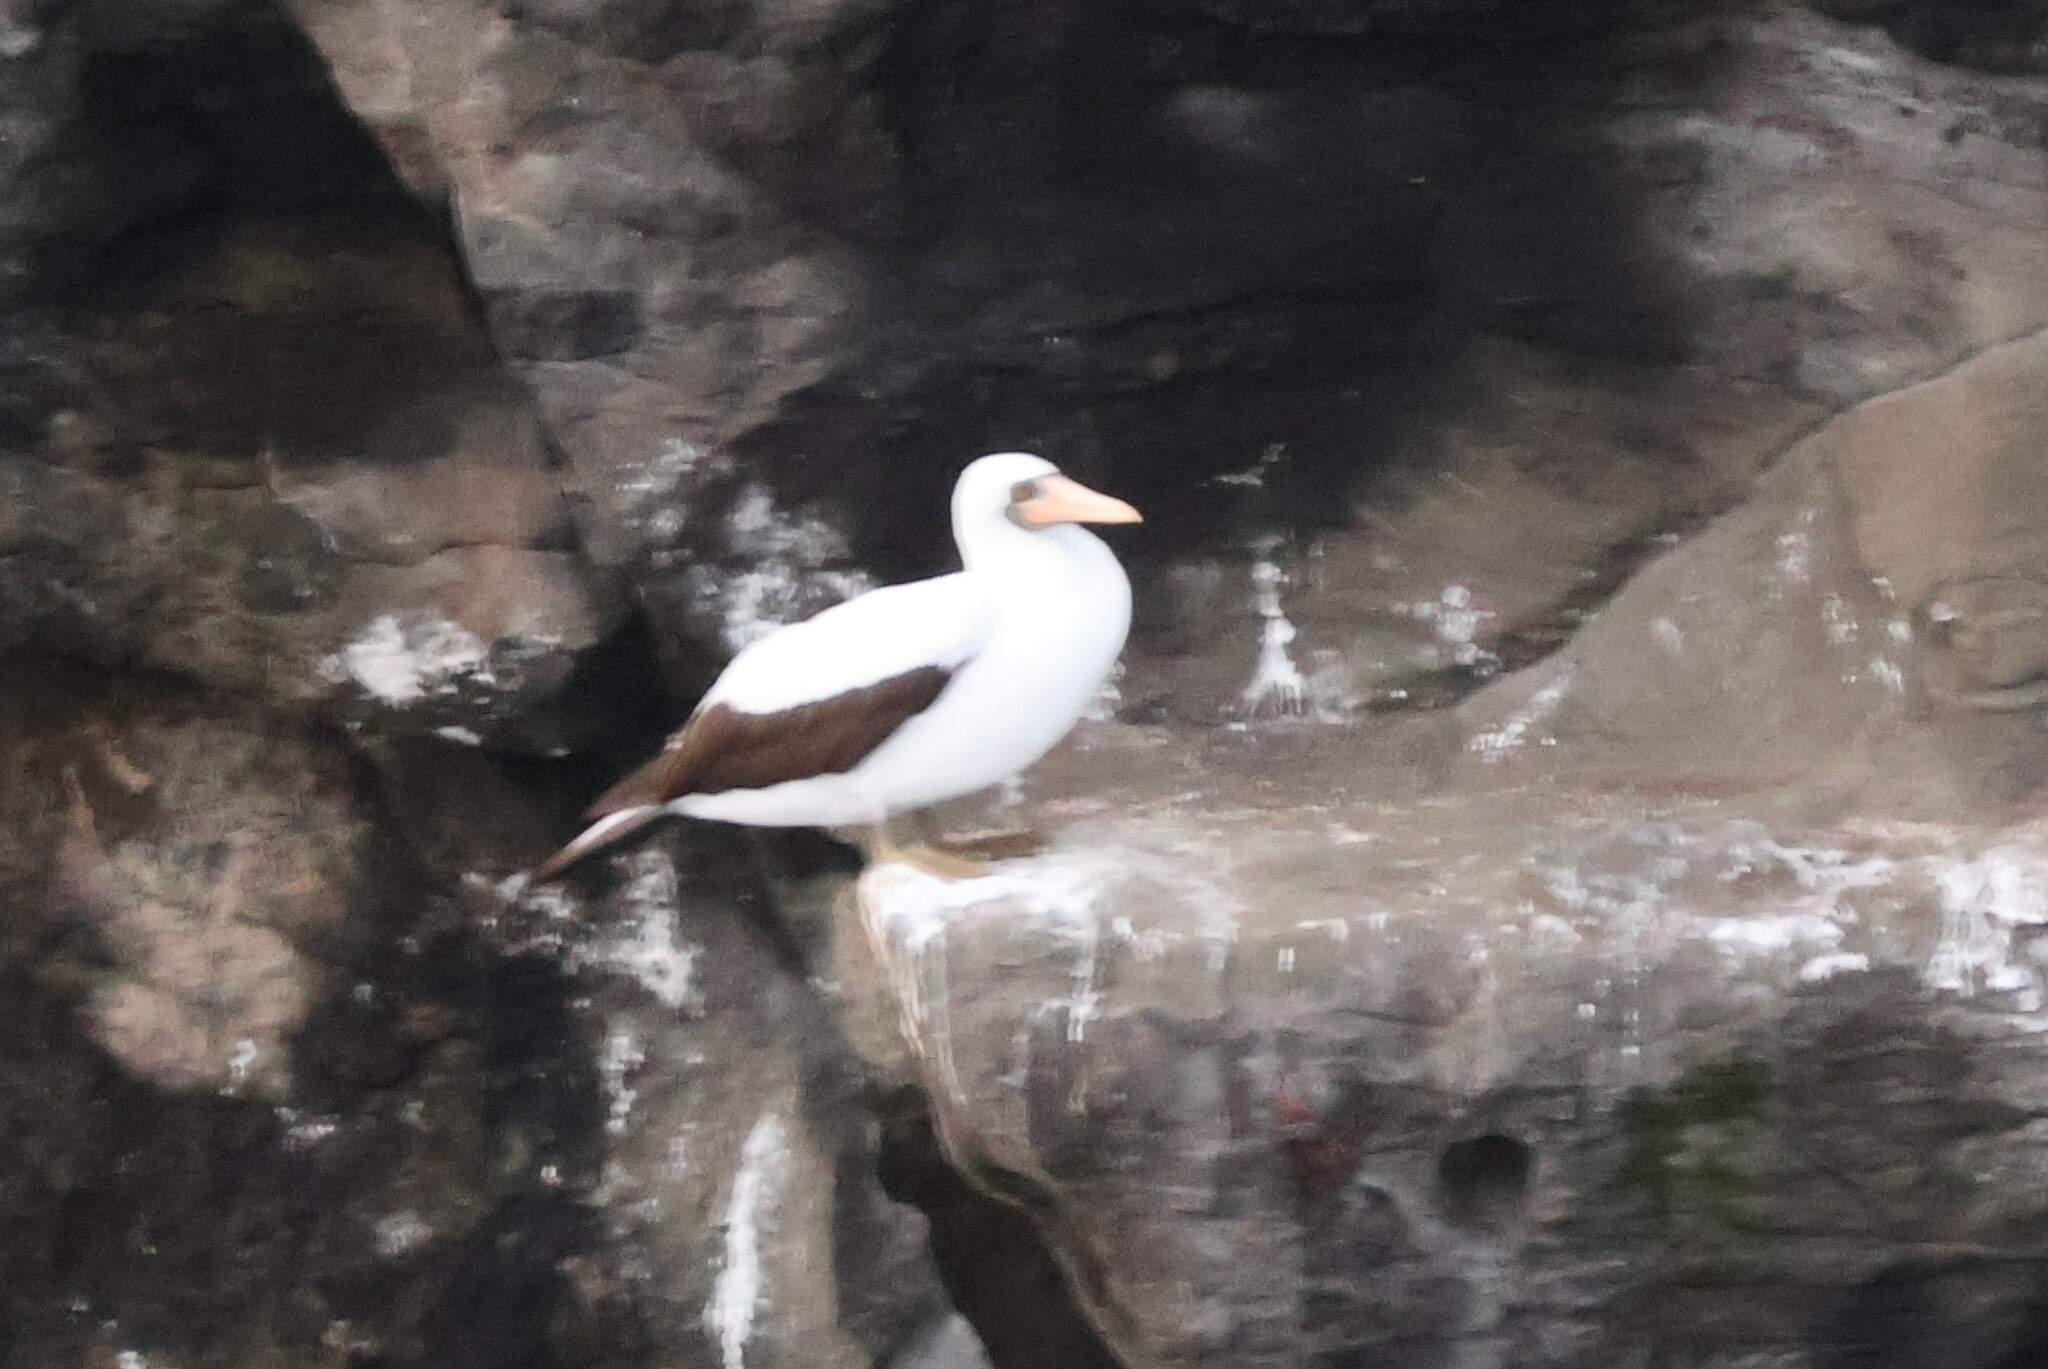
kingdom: Animalia
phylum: Chordata
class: Aves
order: Suliformes
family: Sulidae
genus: Sula
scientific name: Sula granti
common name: Nazca booby
